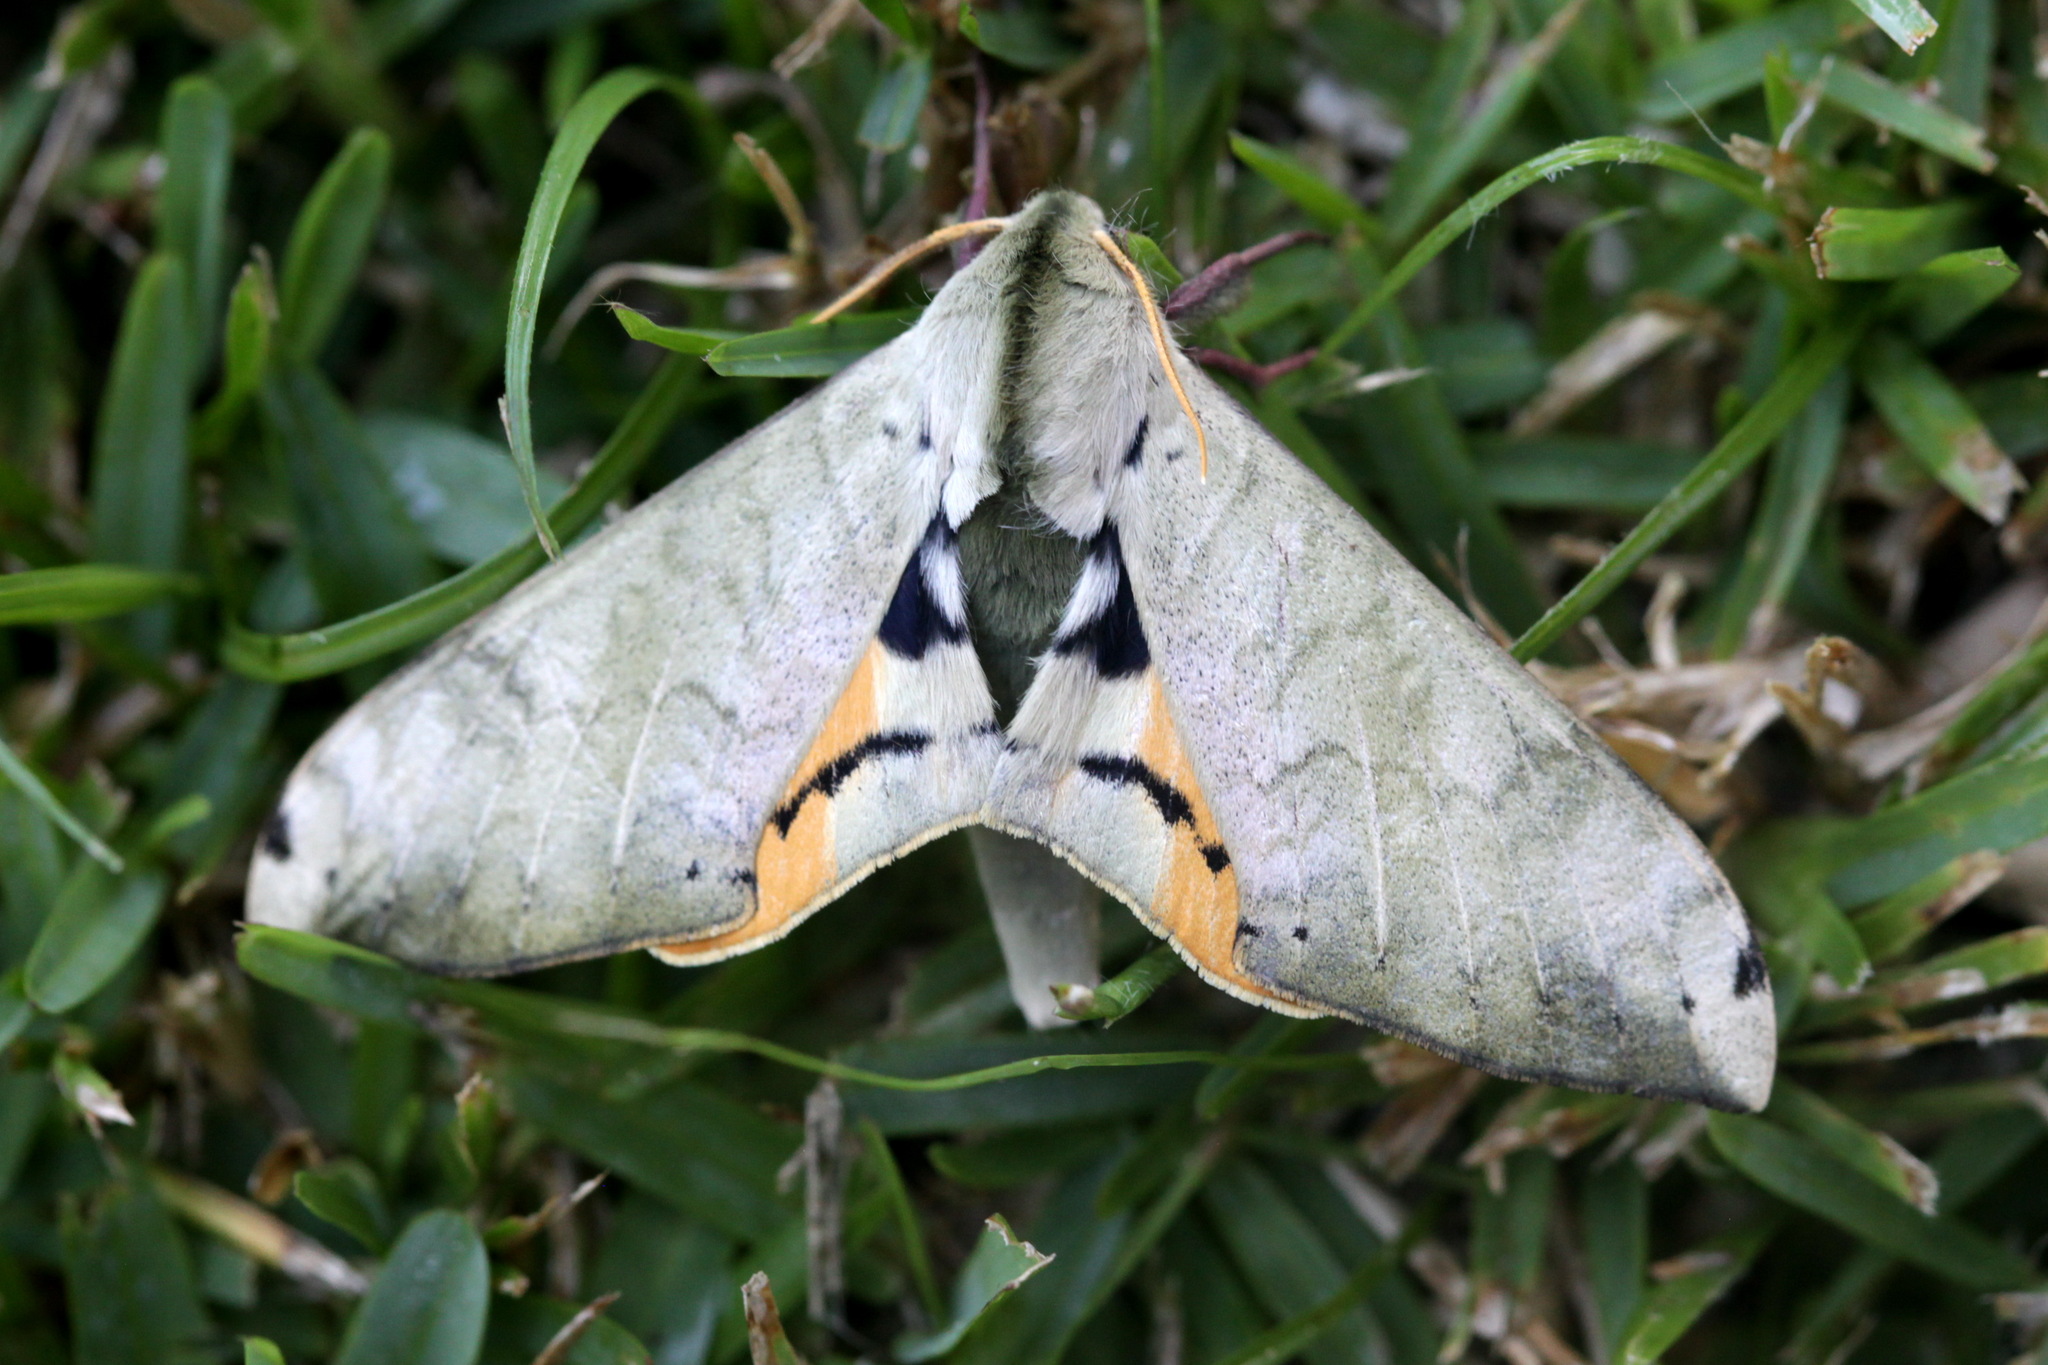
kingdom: Animalia
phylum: Arthropoda
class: Insecta
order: Lepidoptera
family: Sphingidae
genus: Pseudoclanis
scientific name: Pseudoclanis postica
